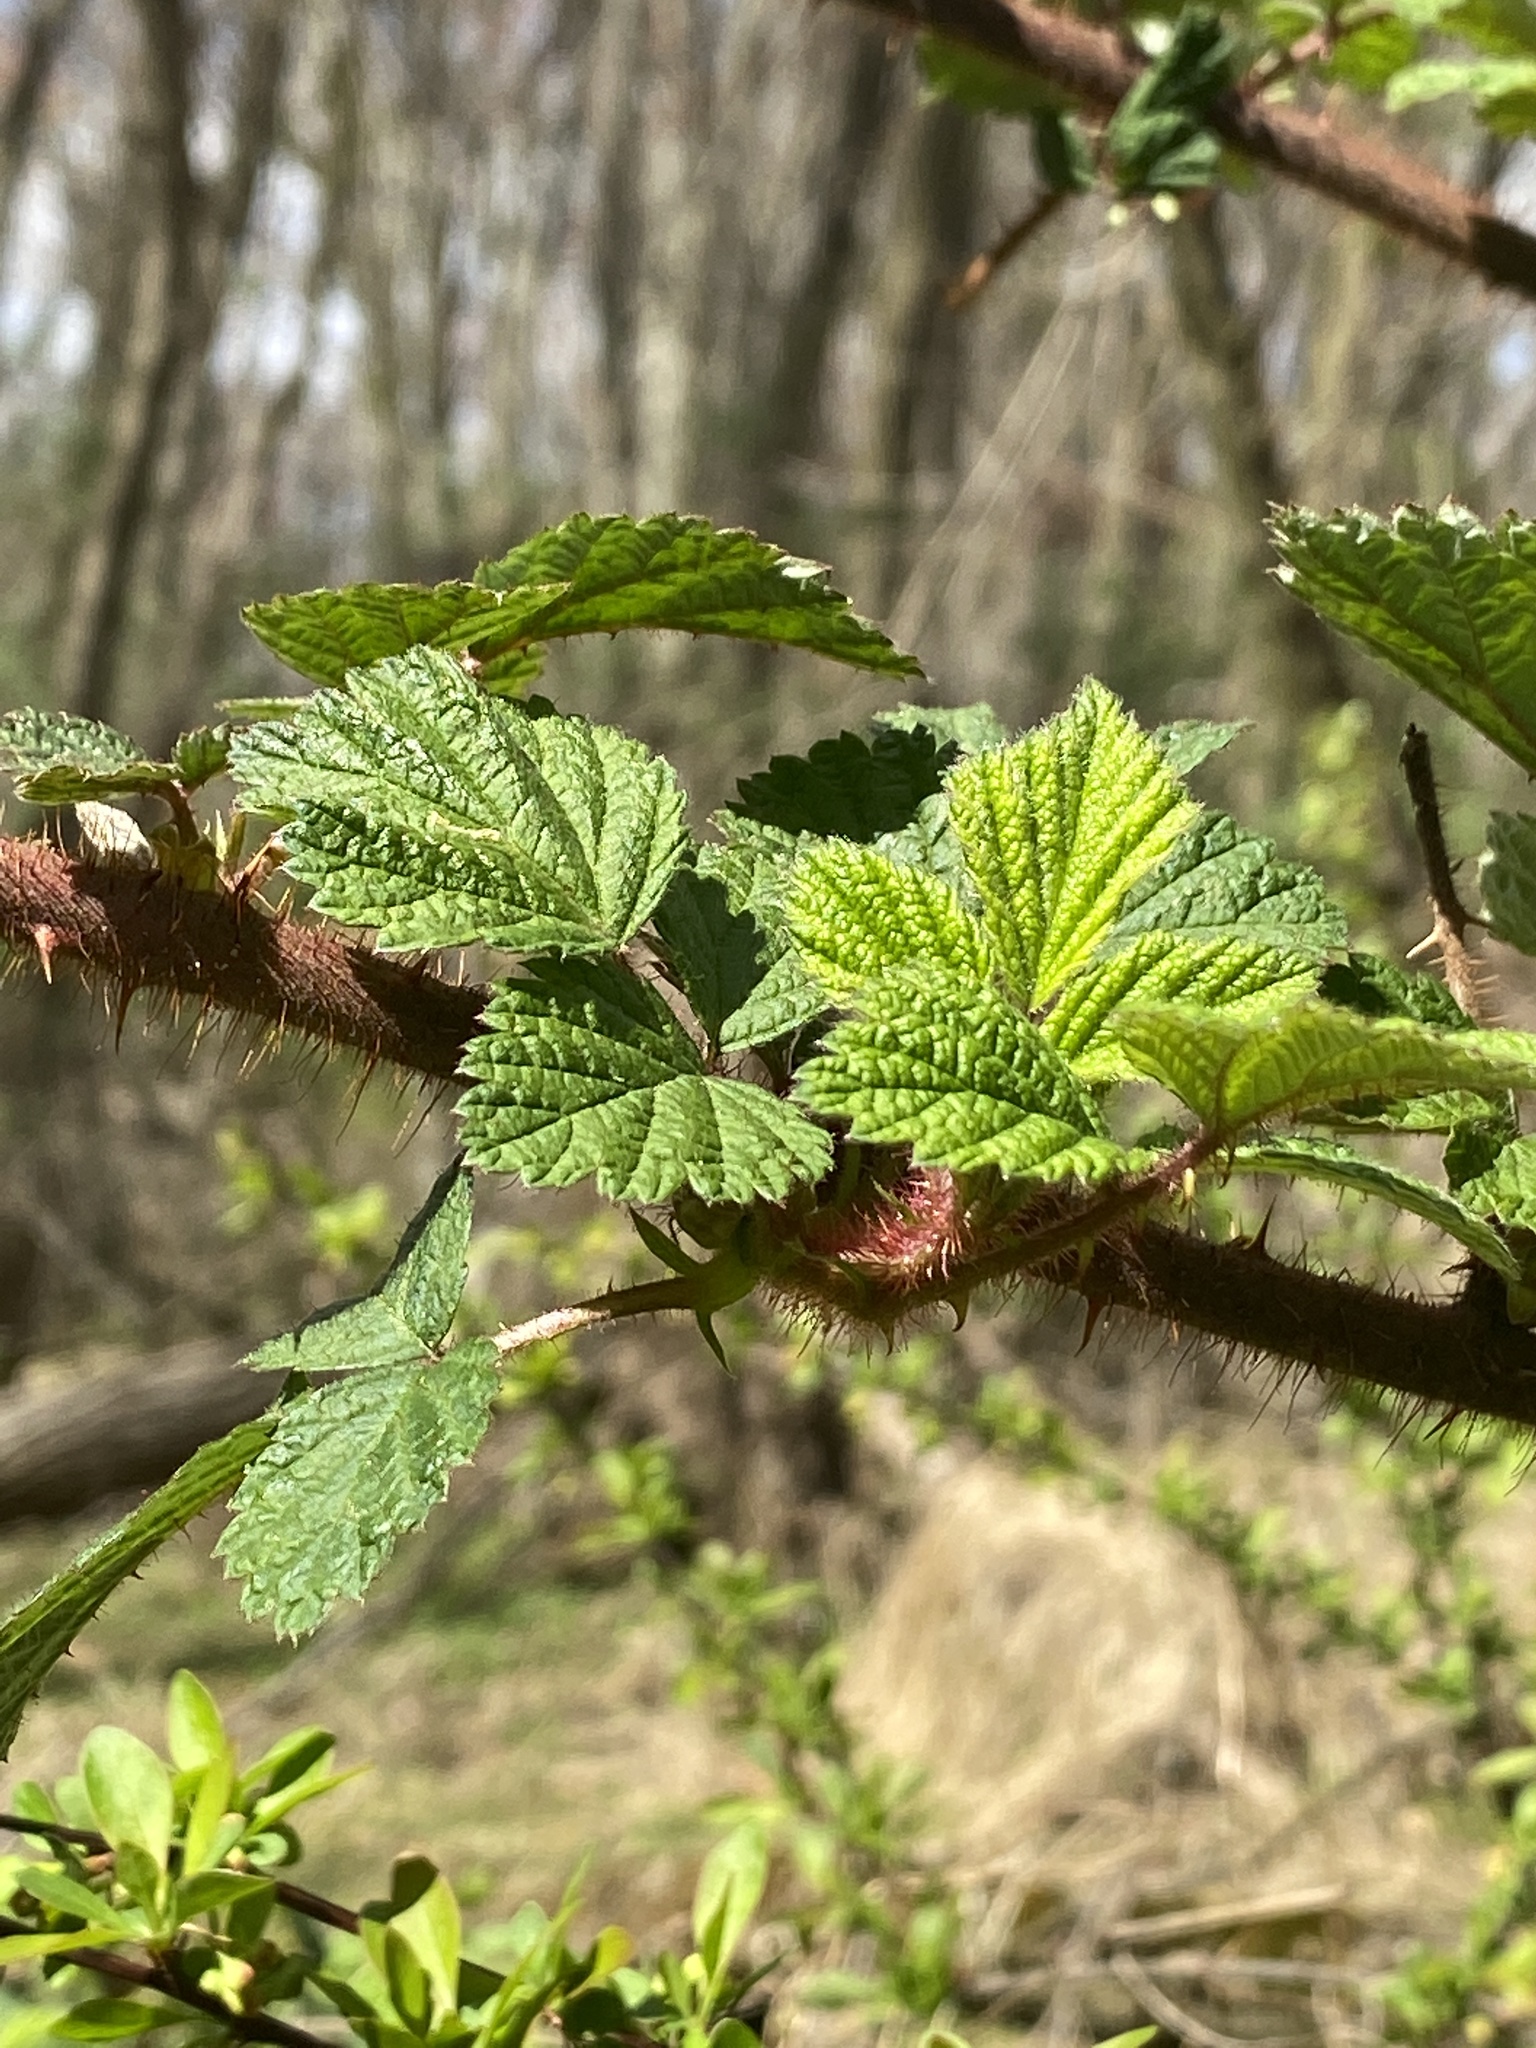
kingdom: Plantae
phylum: Tracheophyta
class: Magnoliopsida
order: Rosales
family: Rosaceae
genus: Rubus
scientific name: Rubus phoenicolasius
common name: Japanese wineberry
